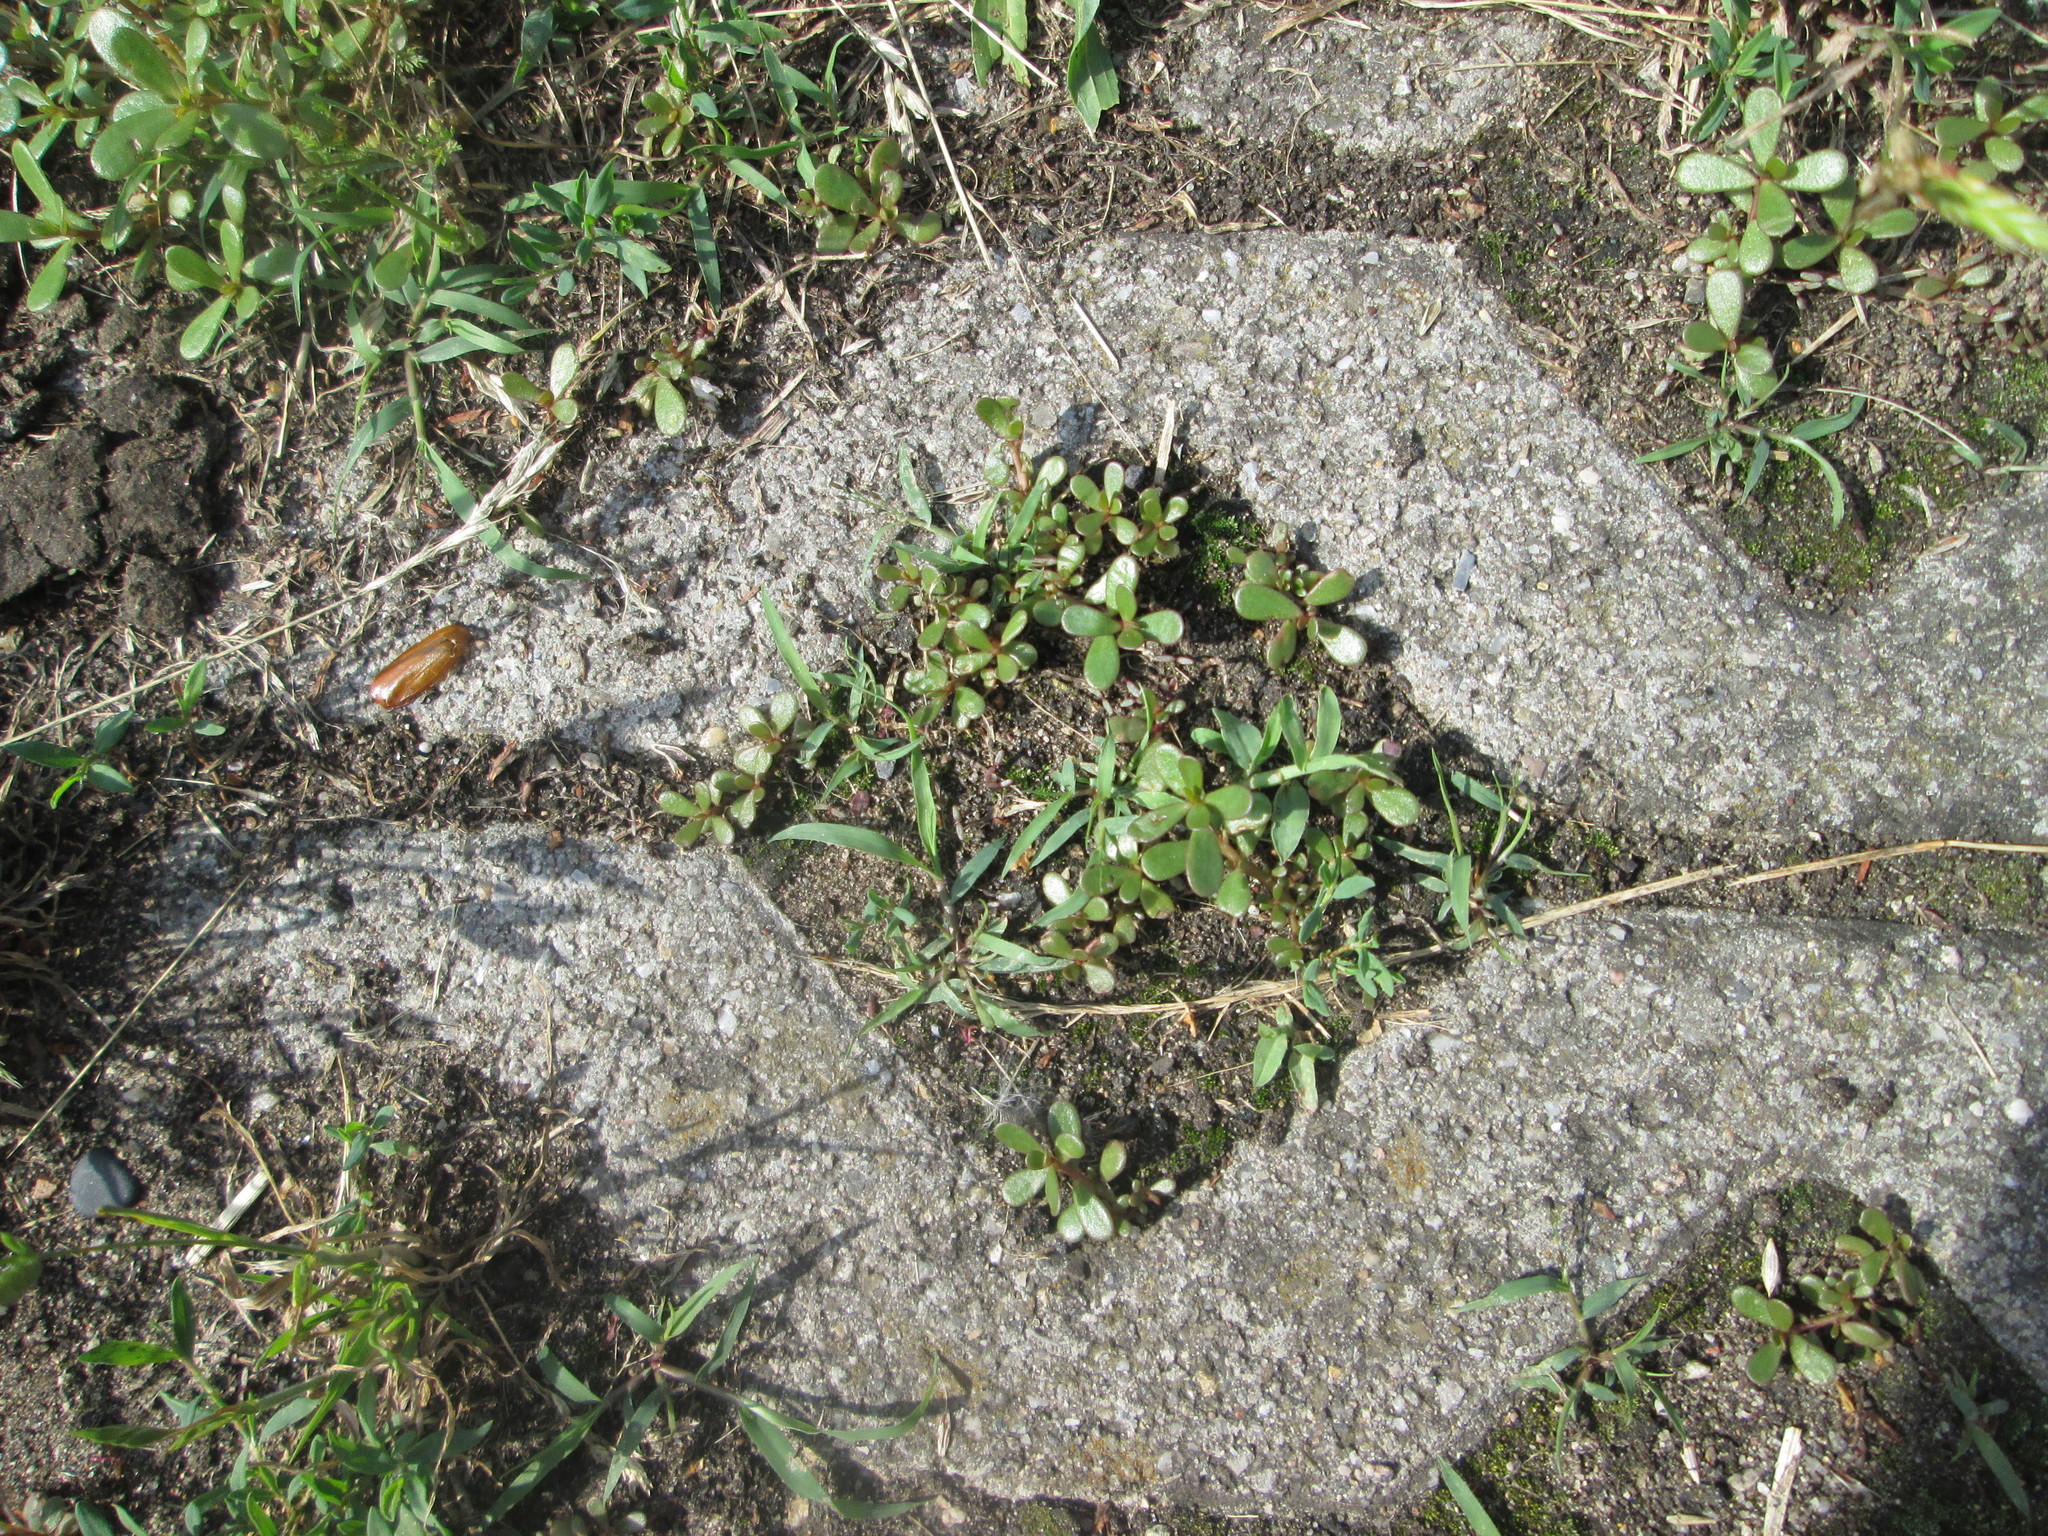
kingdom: Plantae
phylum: Tracheophyta
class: Magnoliopsida
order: Caryophyllales
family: Portulacaceae
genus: Portulaca
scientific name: Portulaca oleracea
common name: Common purslane
